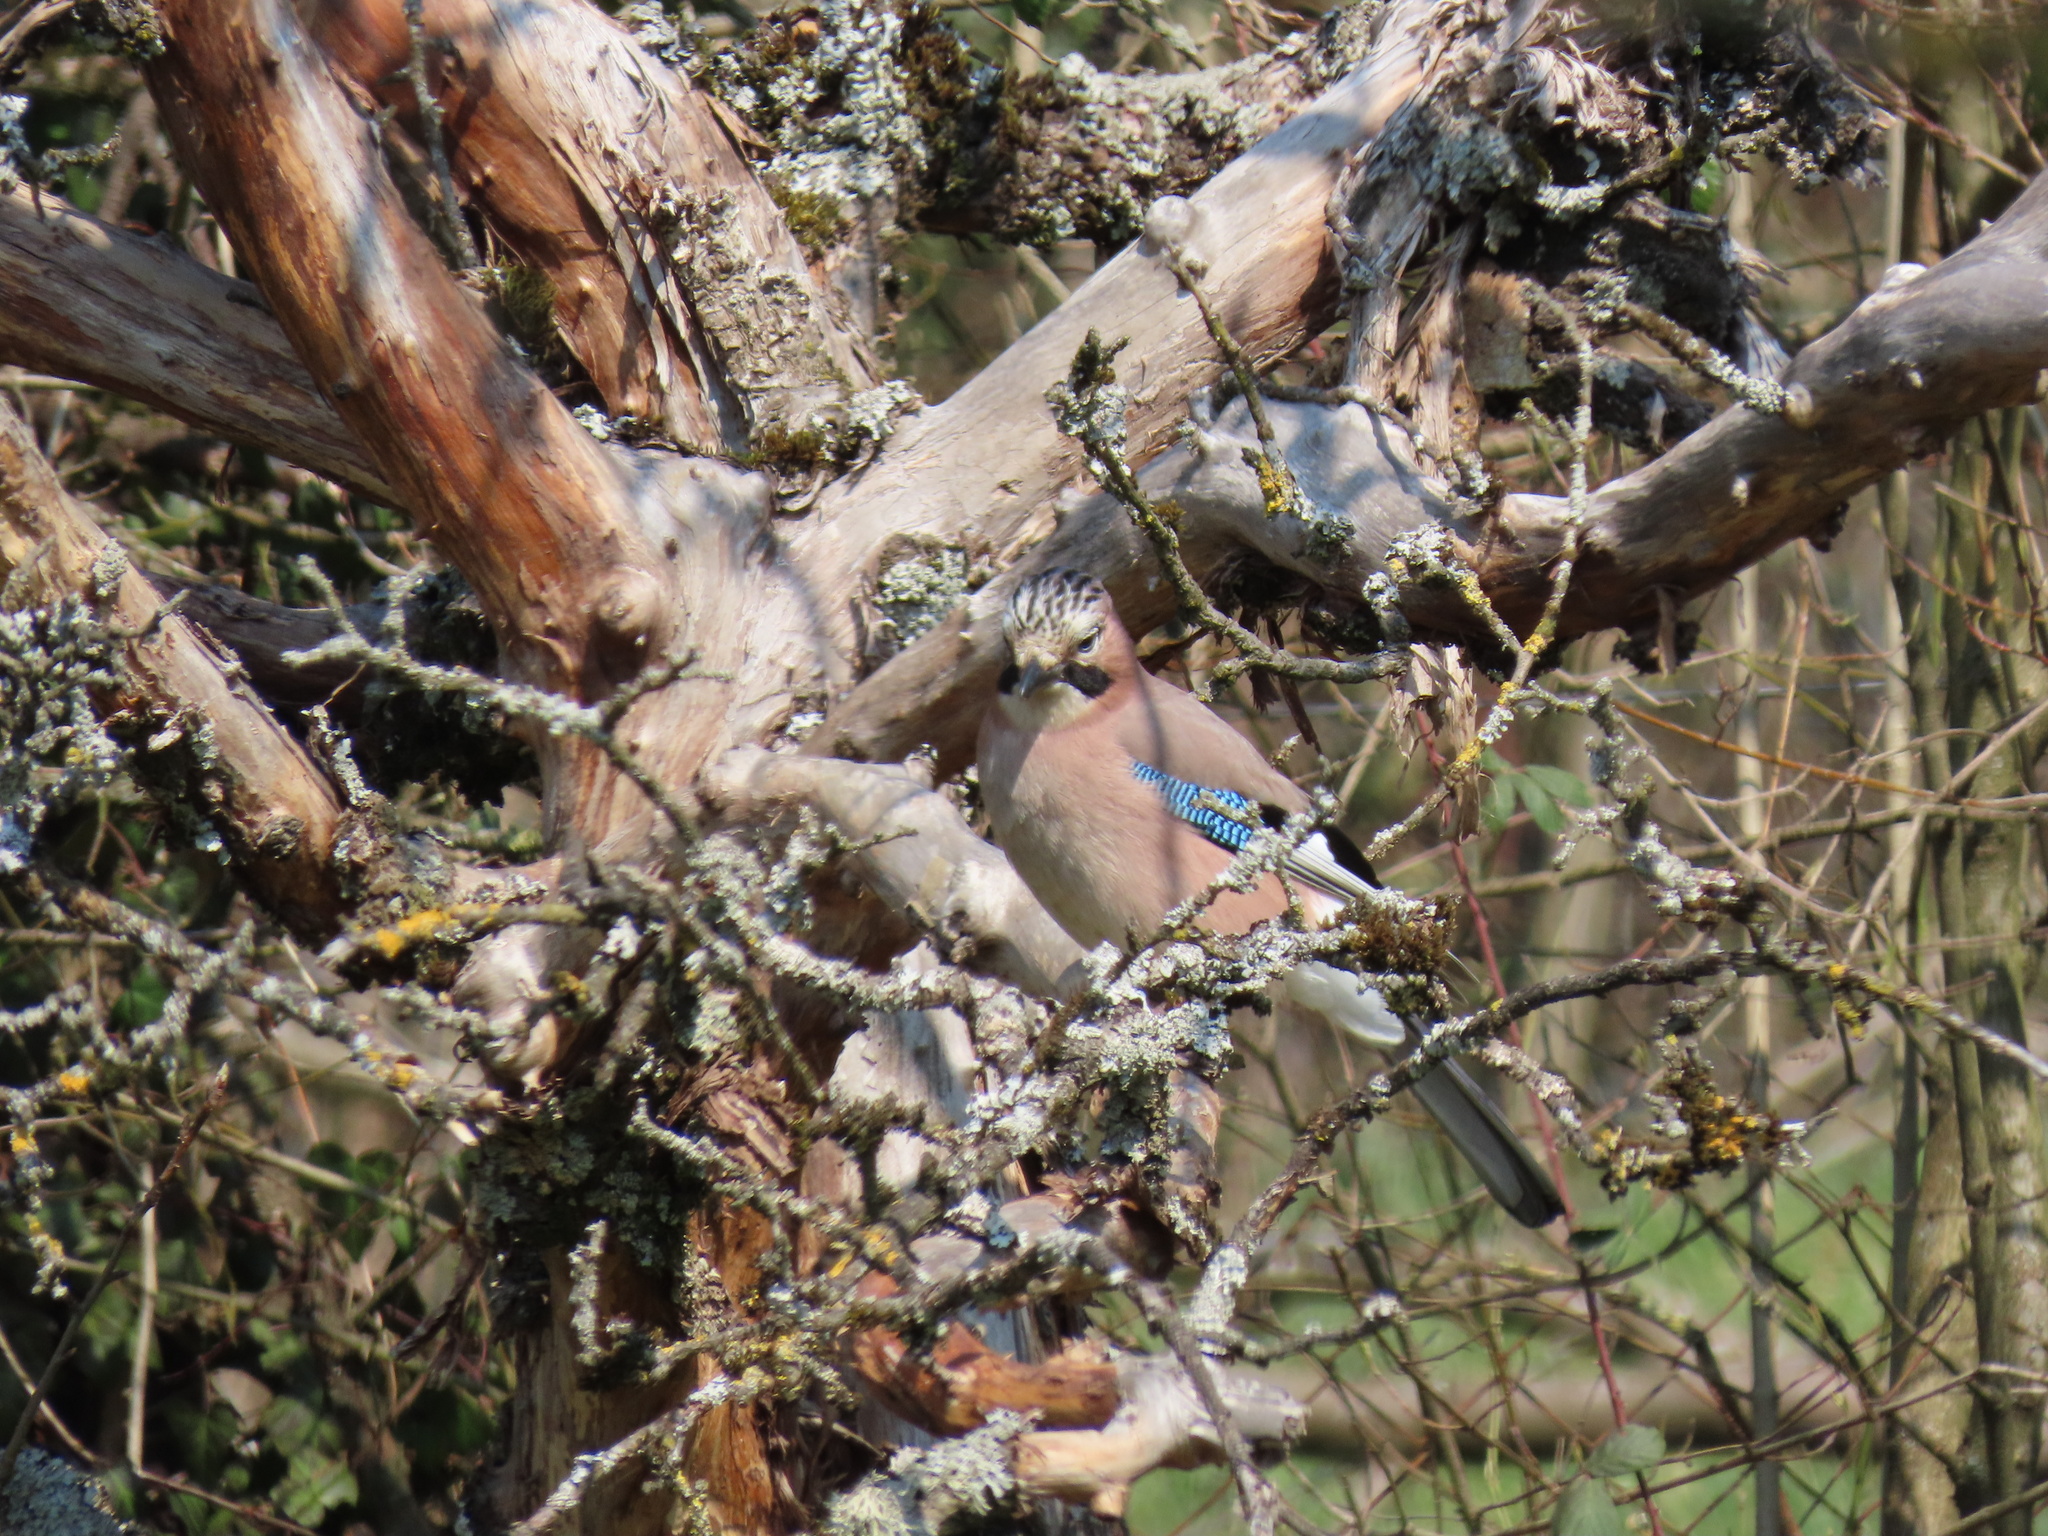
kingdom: Animalia
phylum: Chordata
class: Aves
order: Passeriformes
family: Corvidae
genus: Garrulus
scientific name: Garrulus glandarius
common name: Eurasian jay
